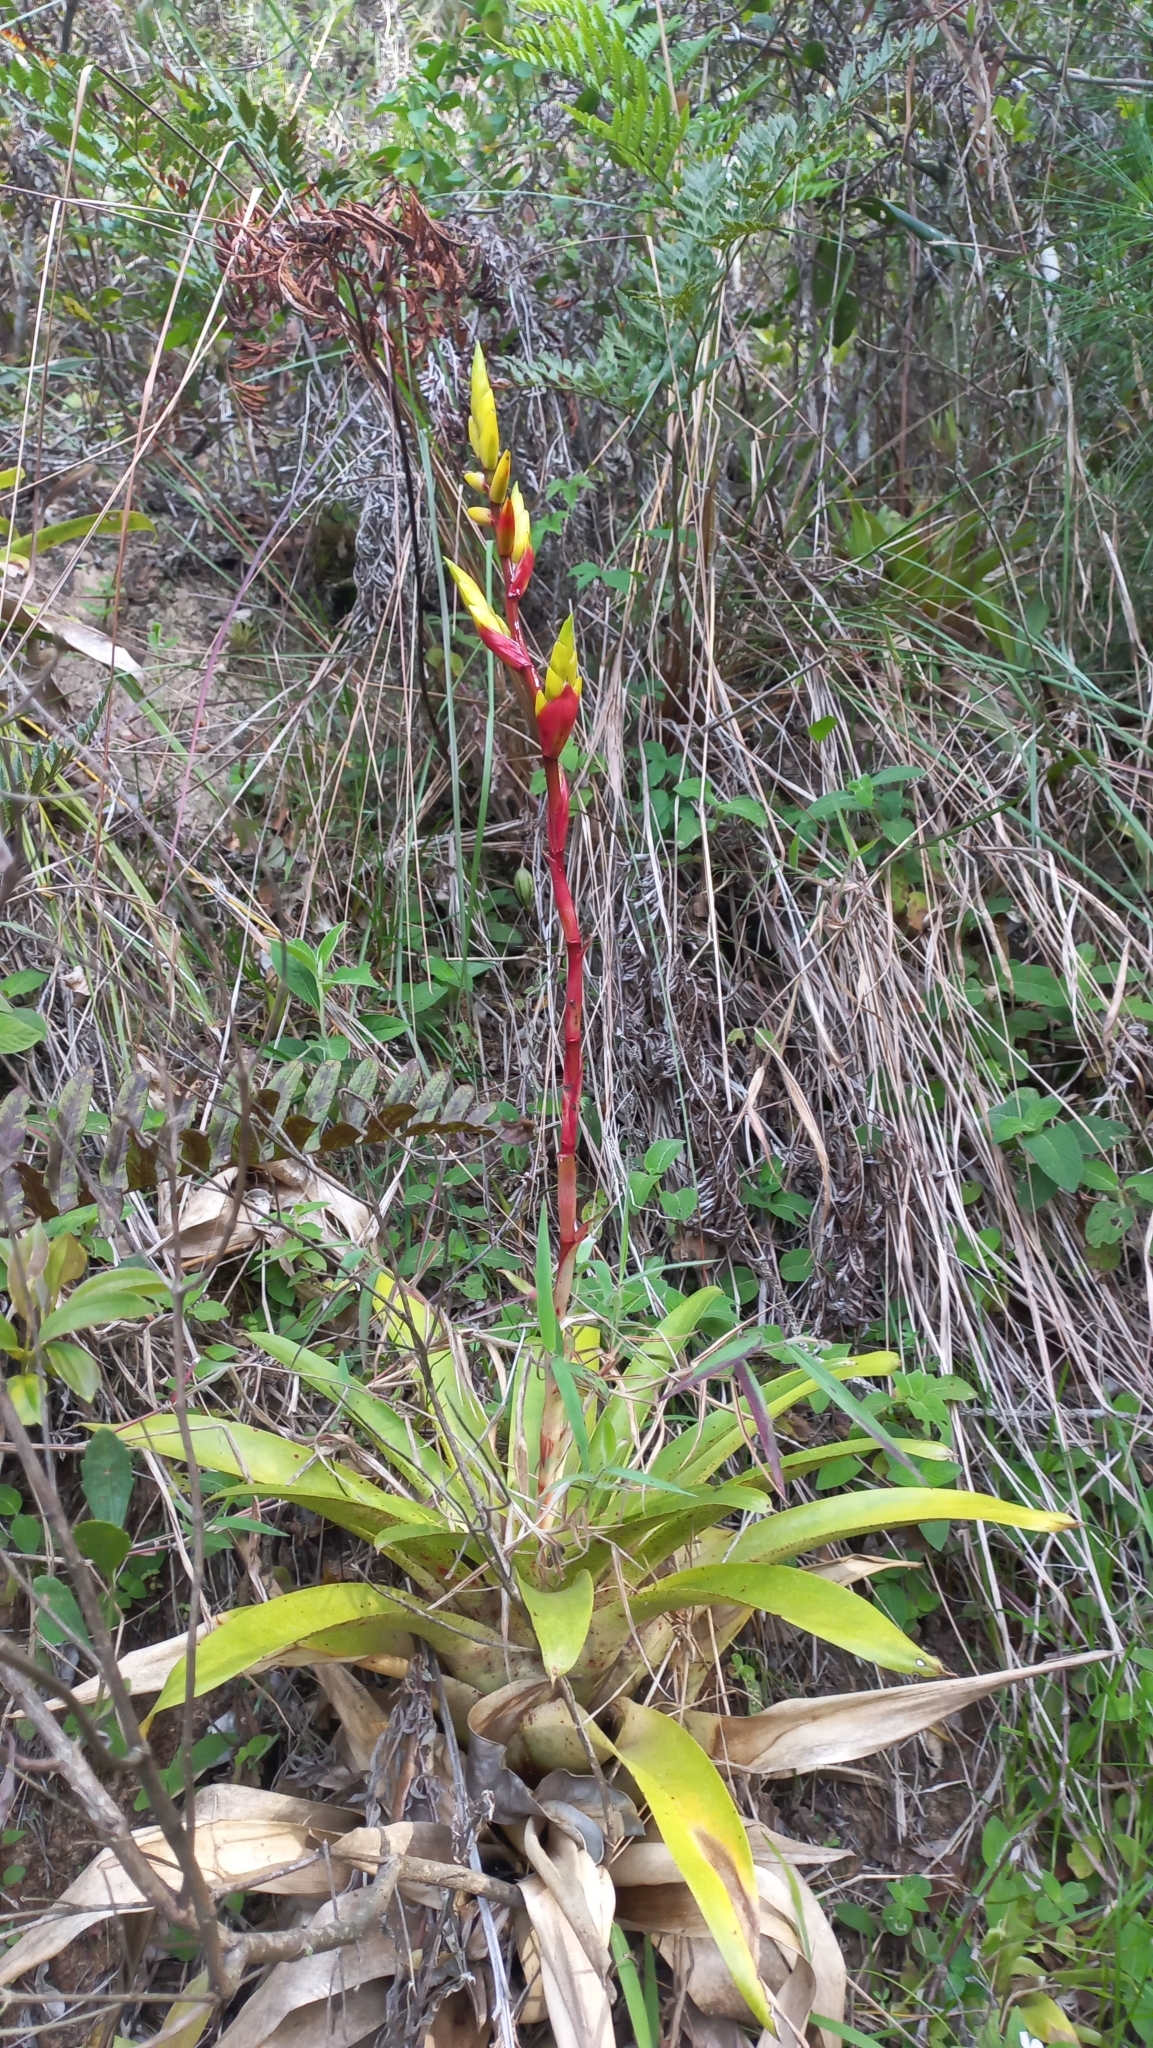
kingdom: Plantae
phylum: Tracheophyta
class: Liliopsida
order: Poales
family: Bromeliaceae
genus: Vriesea
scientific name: Vriesea friburgensis
